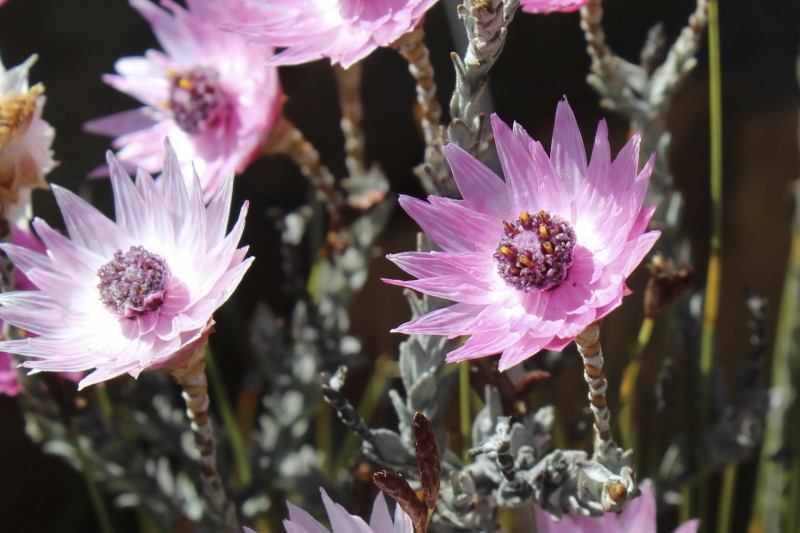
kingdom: Plantae
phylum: Tracheophyta
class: Magnoliopsida
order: Asterales
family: Asteraceae
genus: Syncarpha
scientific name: Syncarpha canescens
